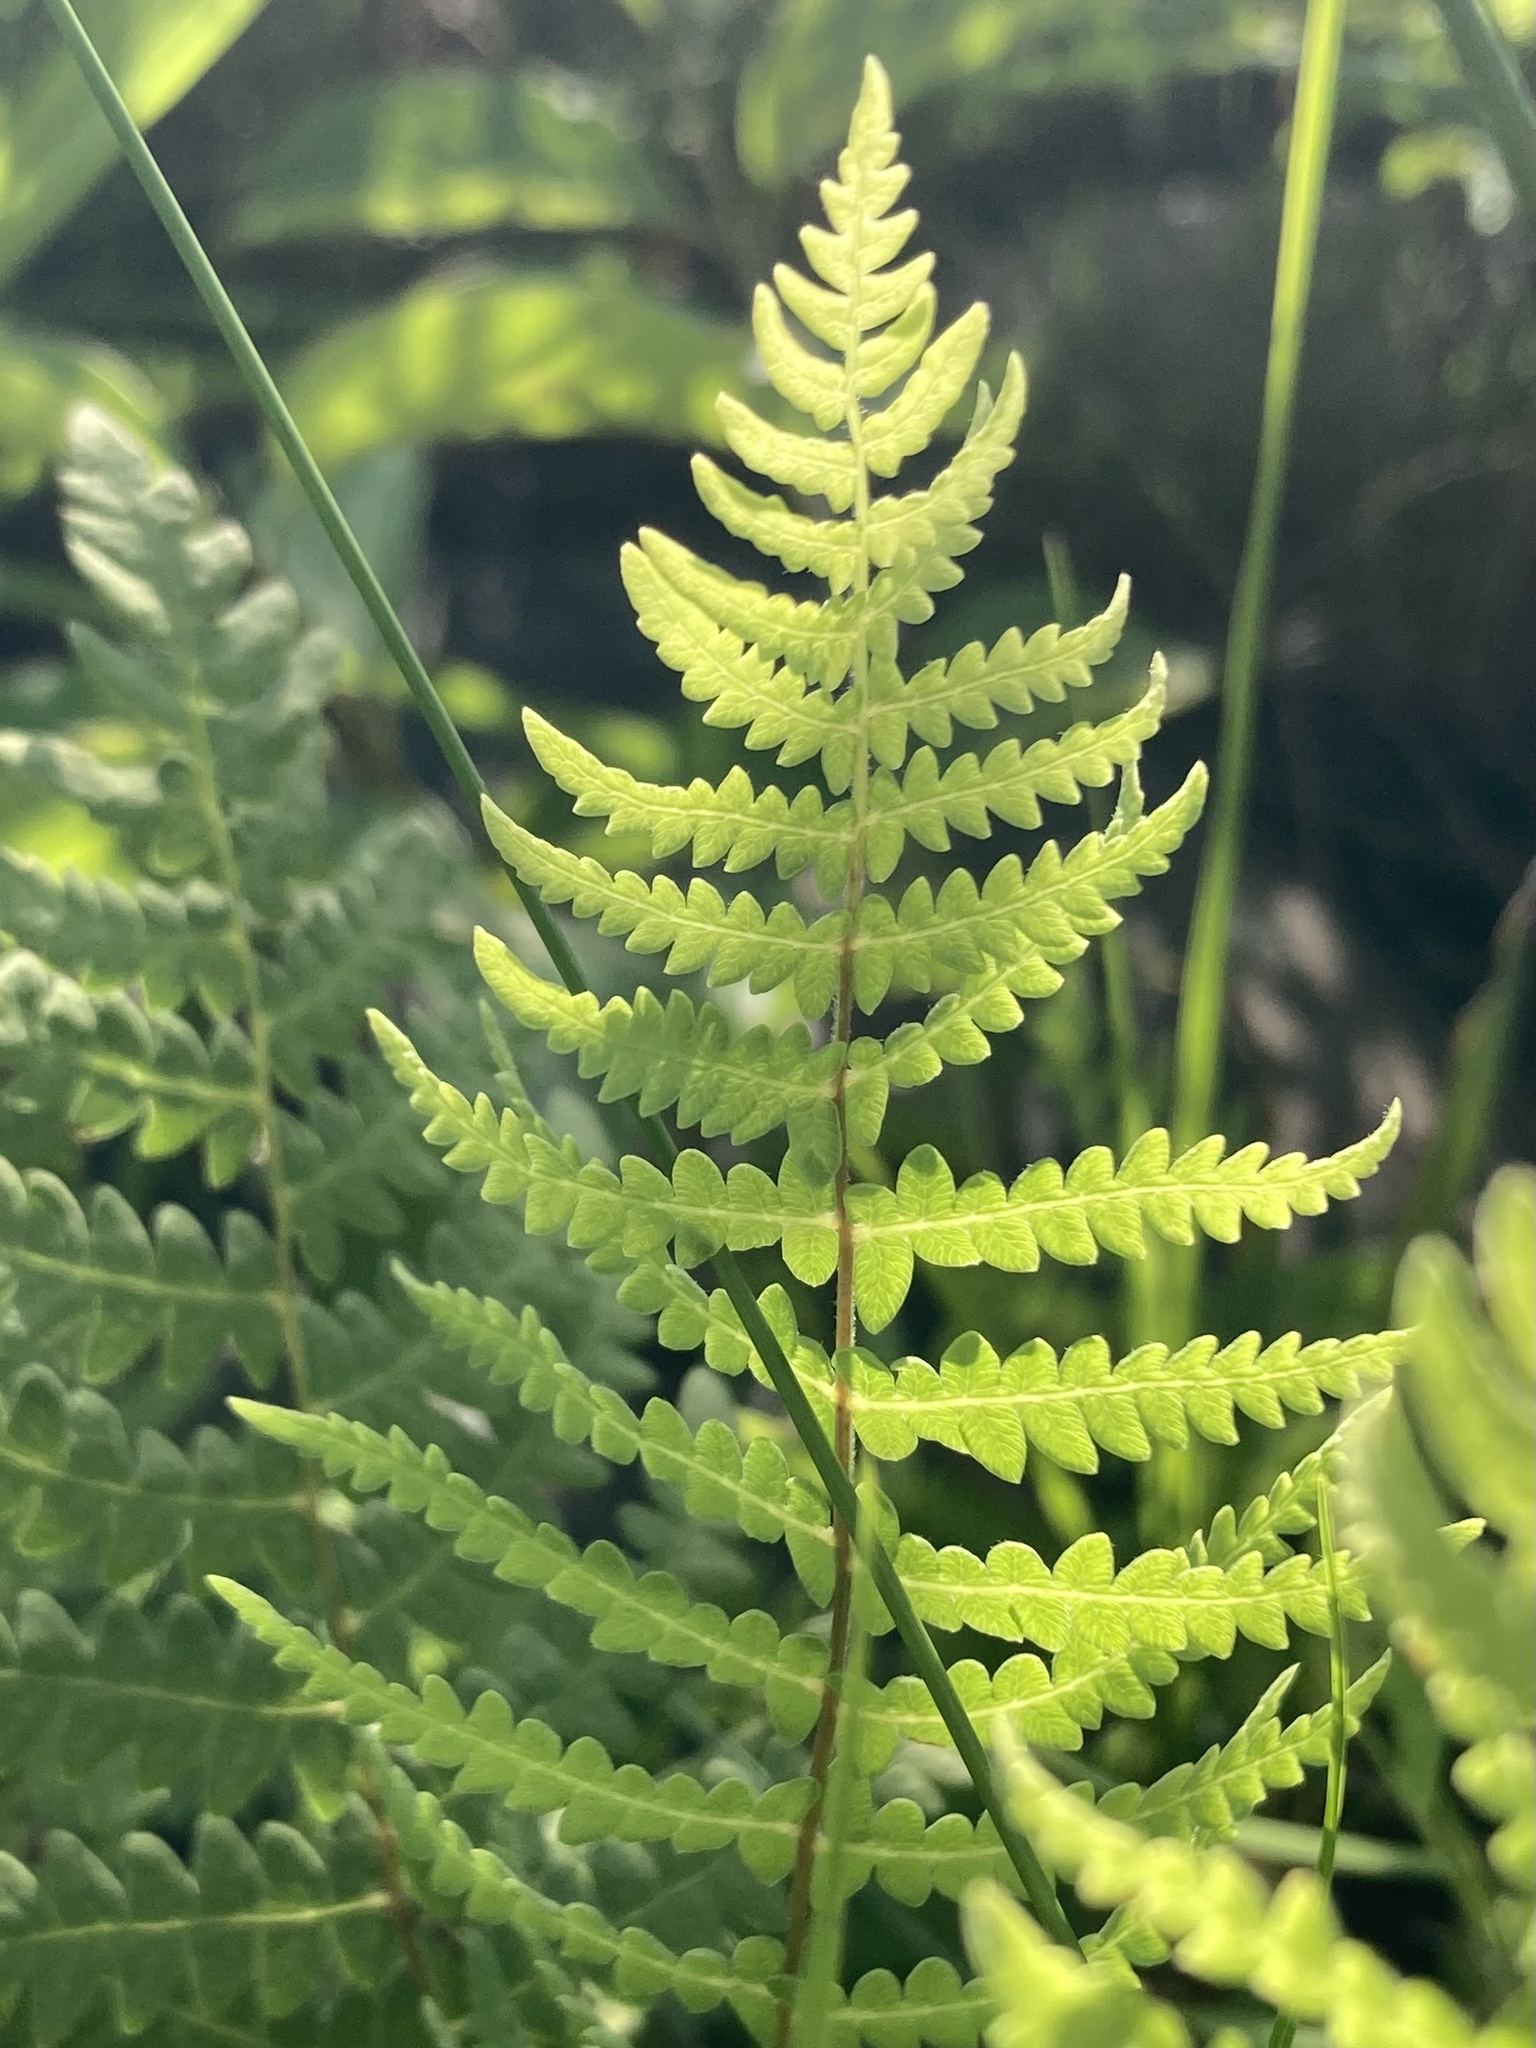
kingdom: Plantae
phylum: Tracheophyta
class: Polypodiopsida
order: Polypodiales
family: Thelypteridaceae
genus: Thelypteris
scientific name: Thelypteris palustris
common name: Marsh fern
